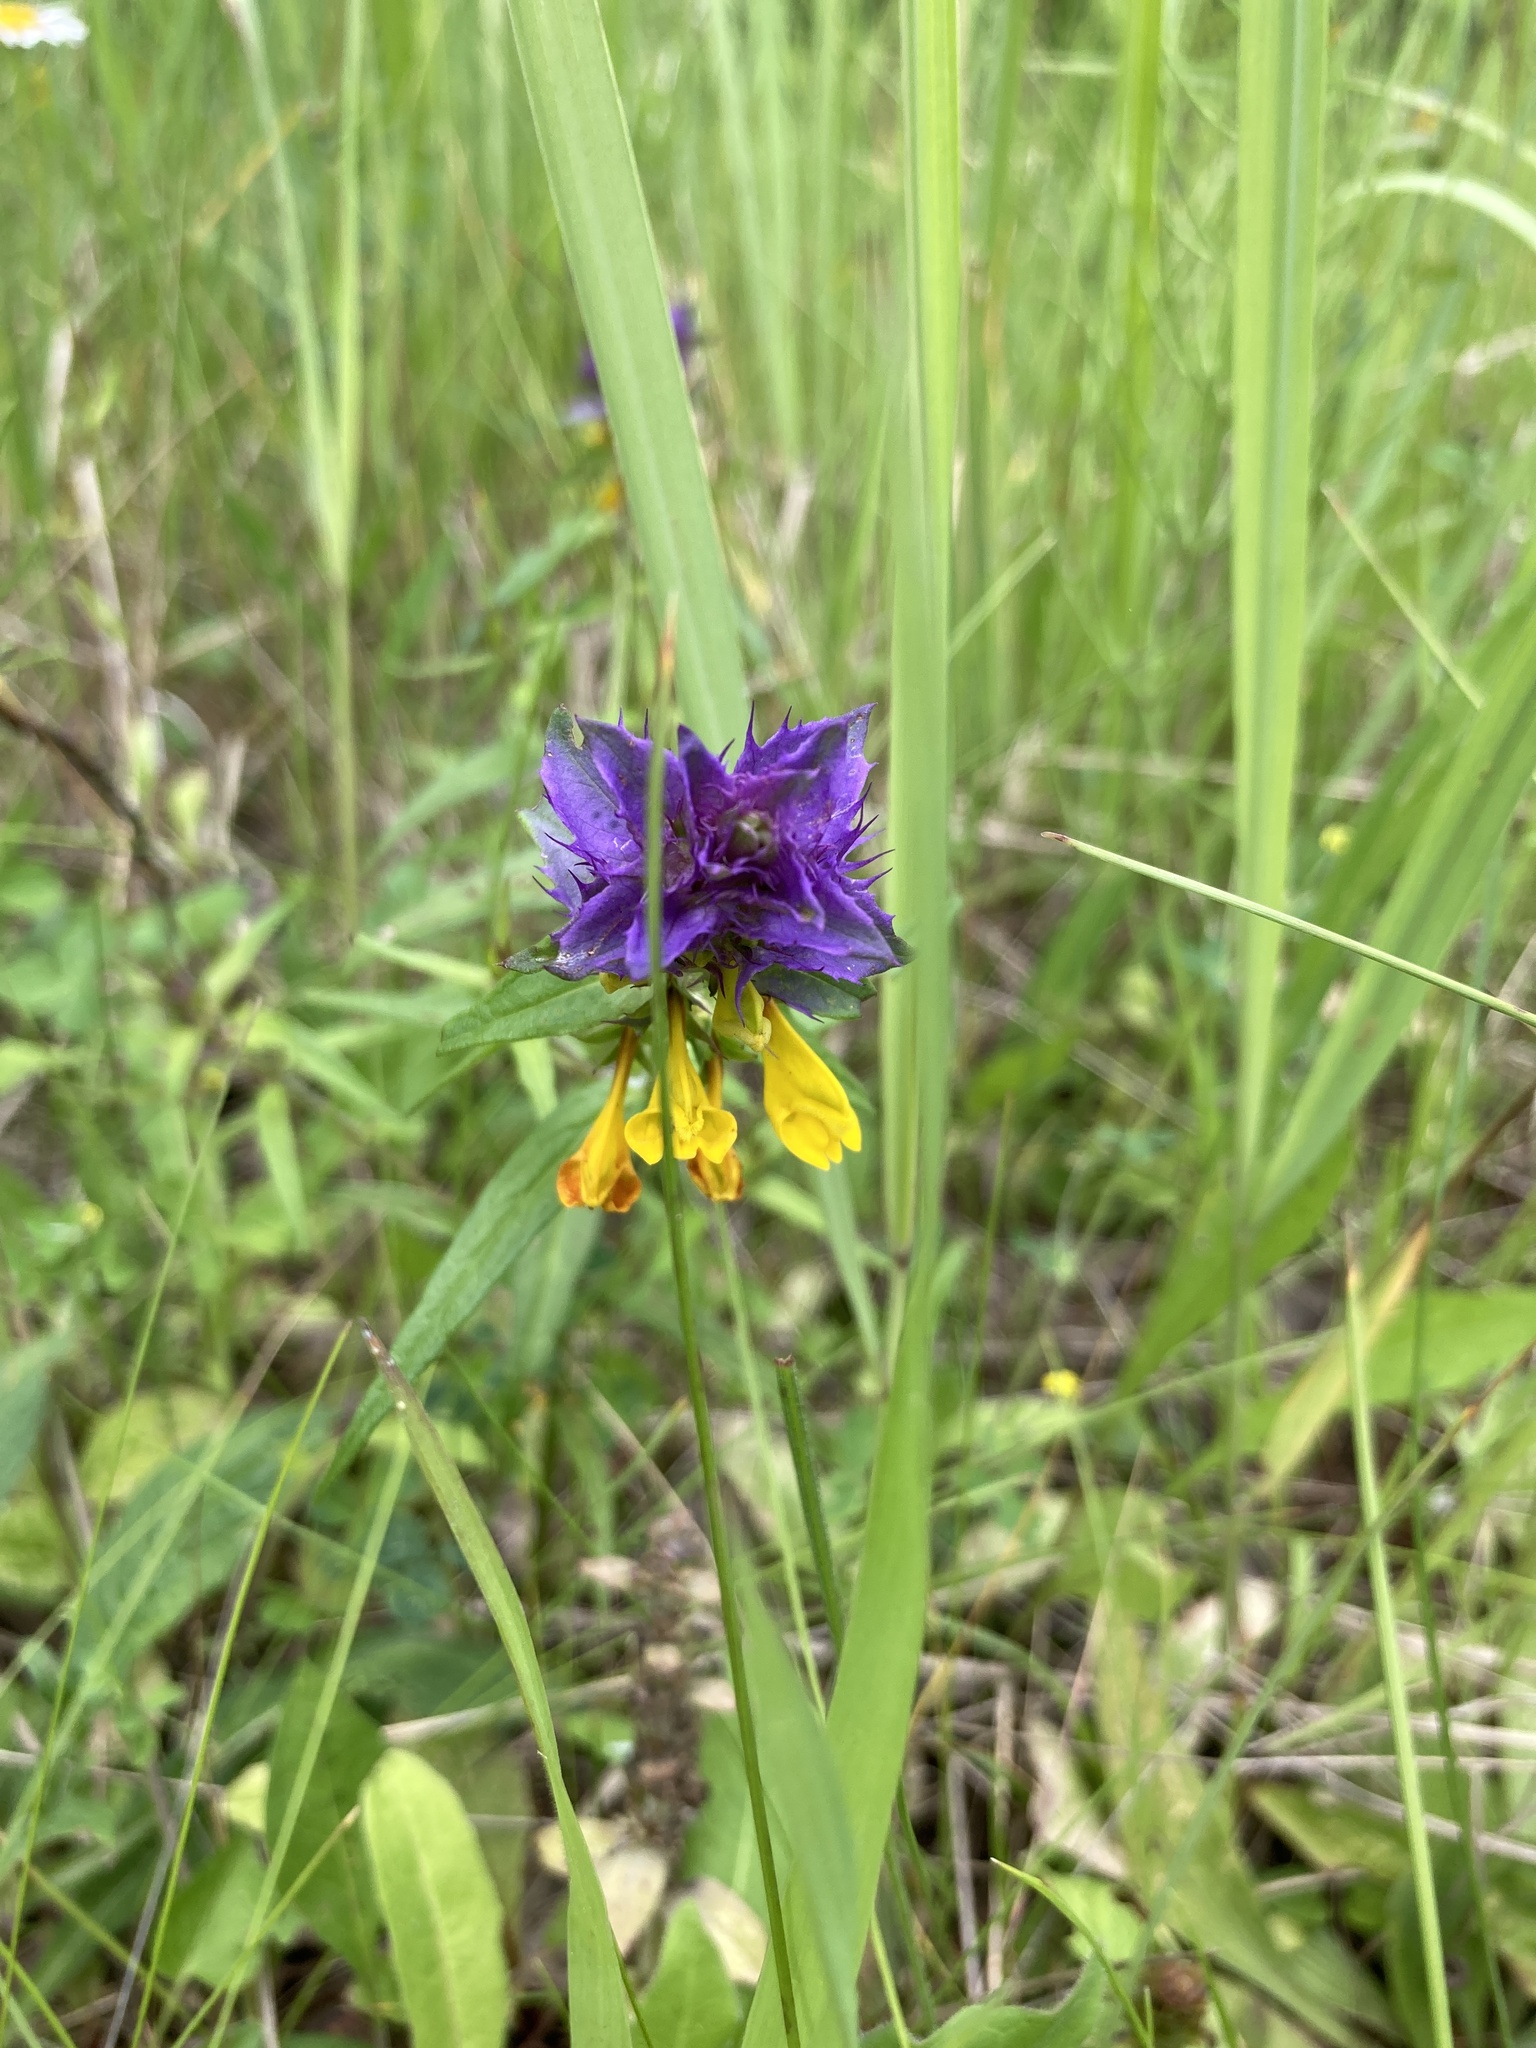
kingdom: Plantae
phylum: Tracheophyta
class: Magnoliopsida
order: Lamiales
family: Orobanchaceae
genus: Melampyrum
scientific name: Melampyrum nemorosum
